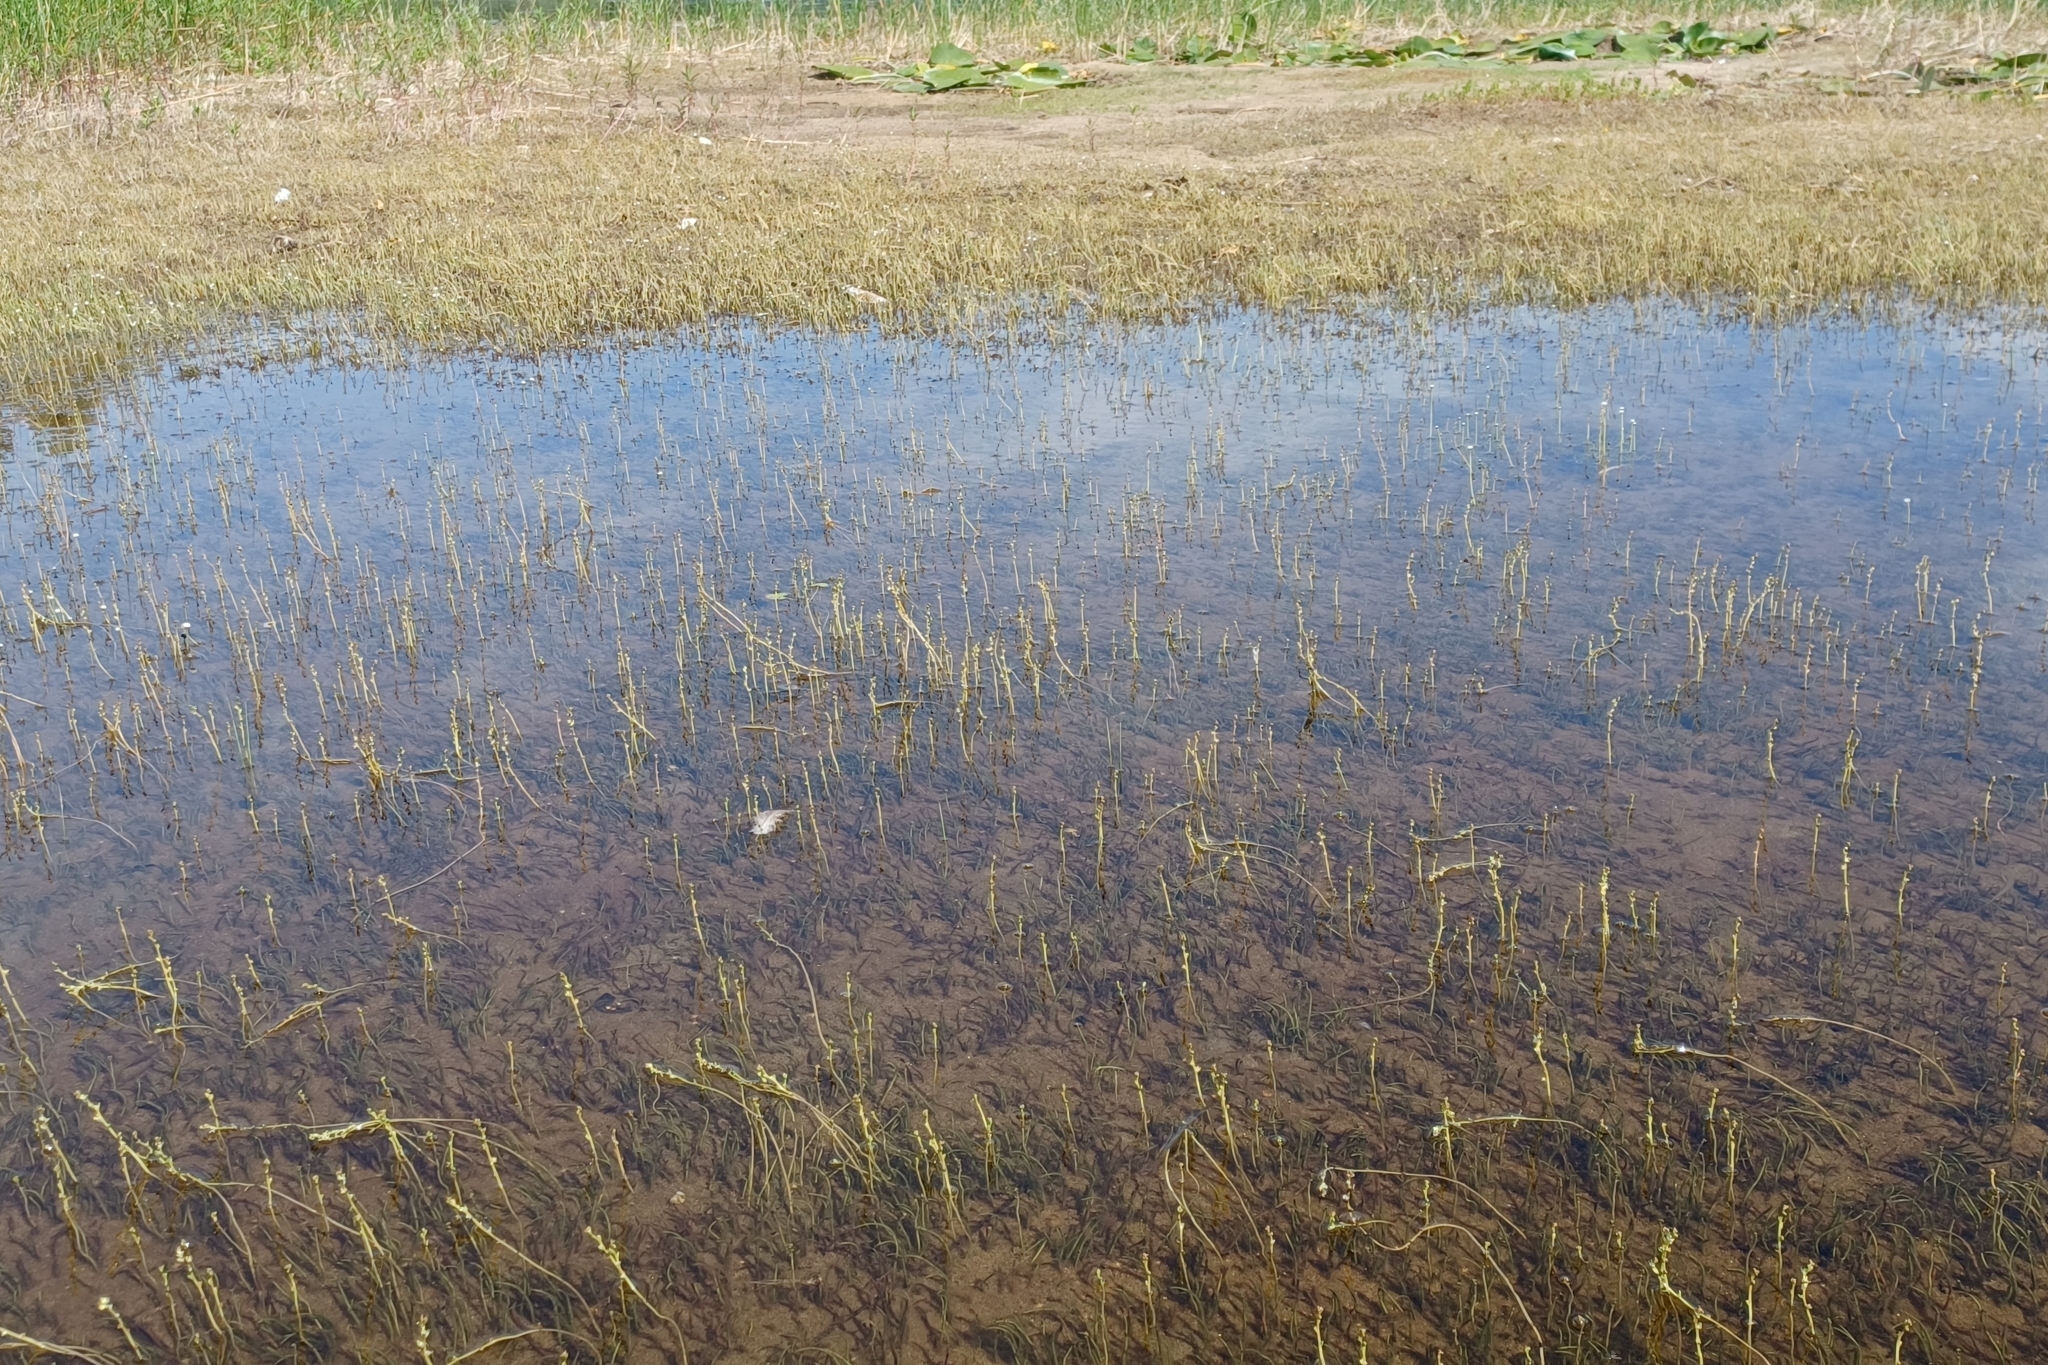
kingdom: Plantae
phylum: Tracheophyta
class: Magnoliopsida
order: Saxifragales
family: Haloragaceae
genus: Myriophyllum
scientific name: Myriophyllum tenellum
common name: Slender water-milfoil
